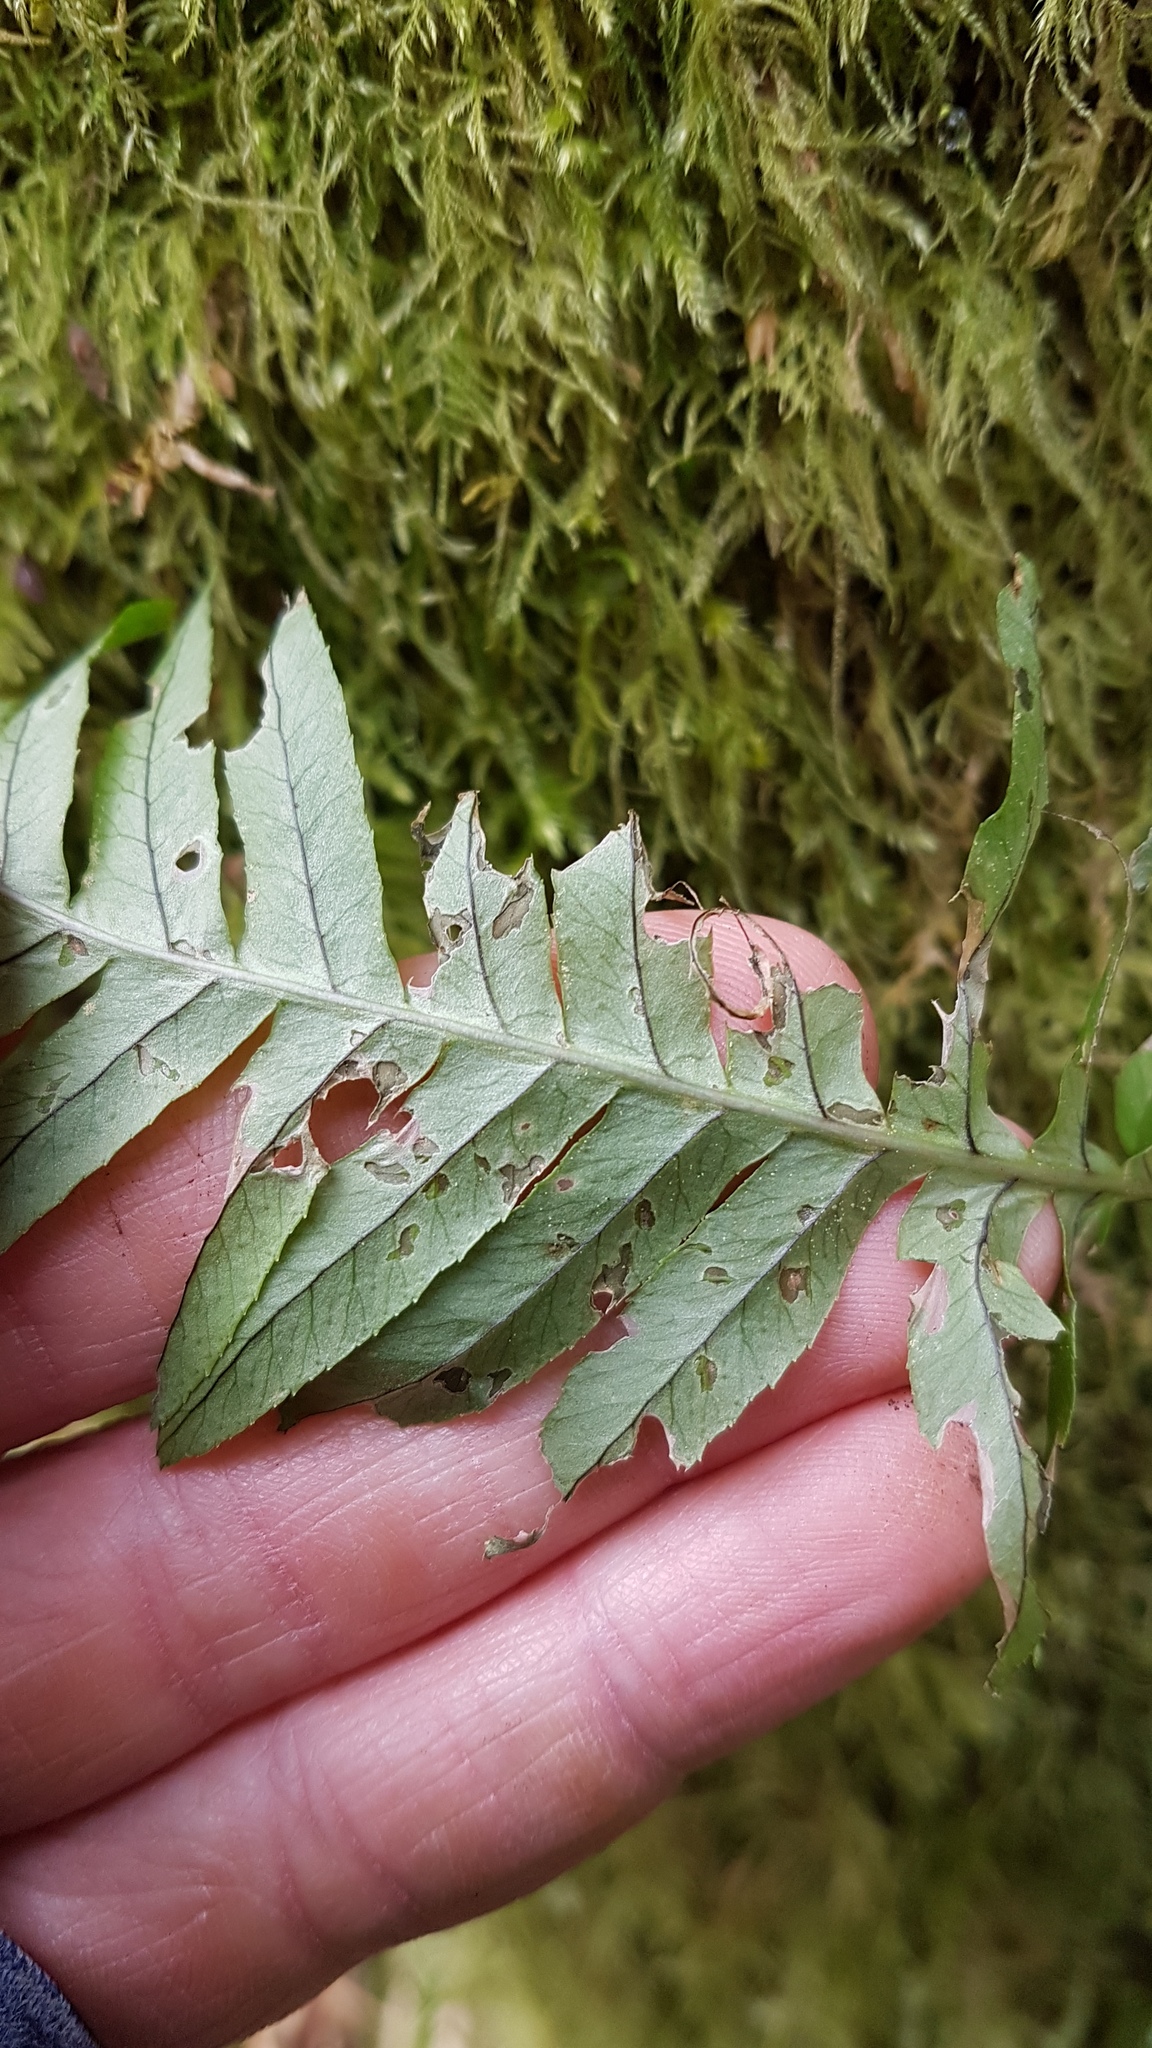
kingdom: Plantae
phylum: Tracheophyta
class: Polypodiopsida
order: Polypodiales
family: Polypodiaceae
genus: Polypodium
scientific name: Polypodium glycyrrhiza
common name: Licorice fern
